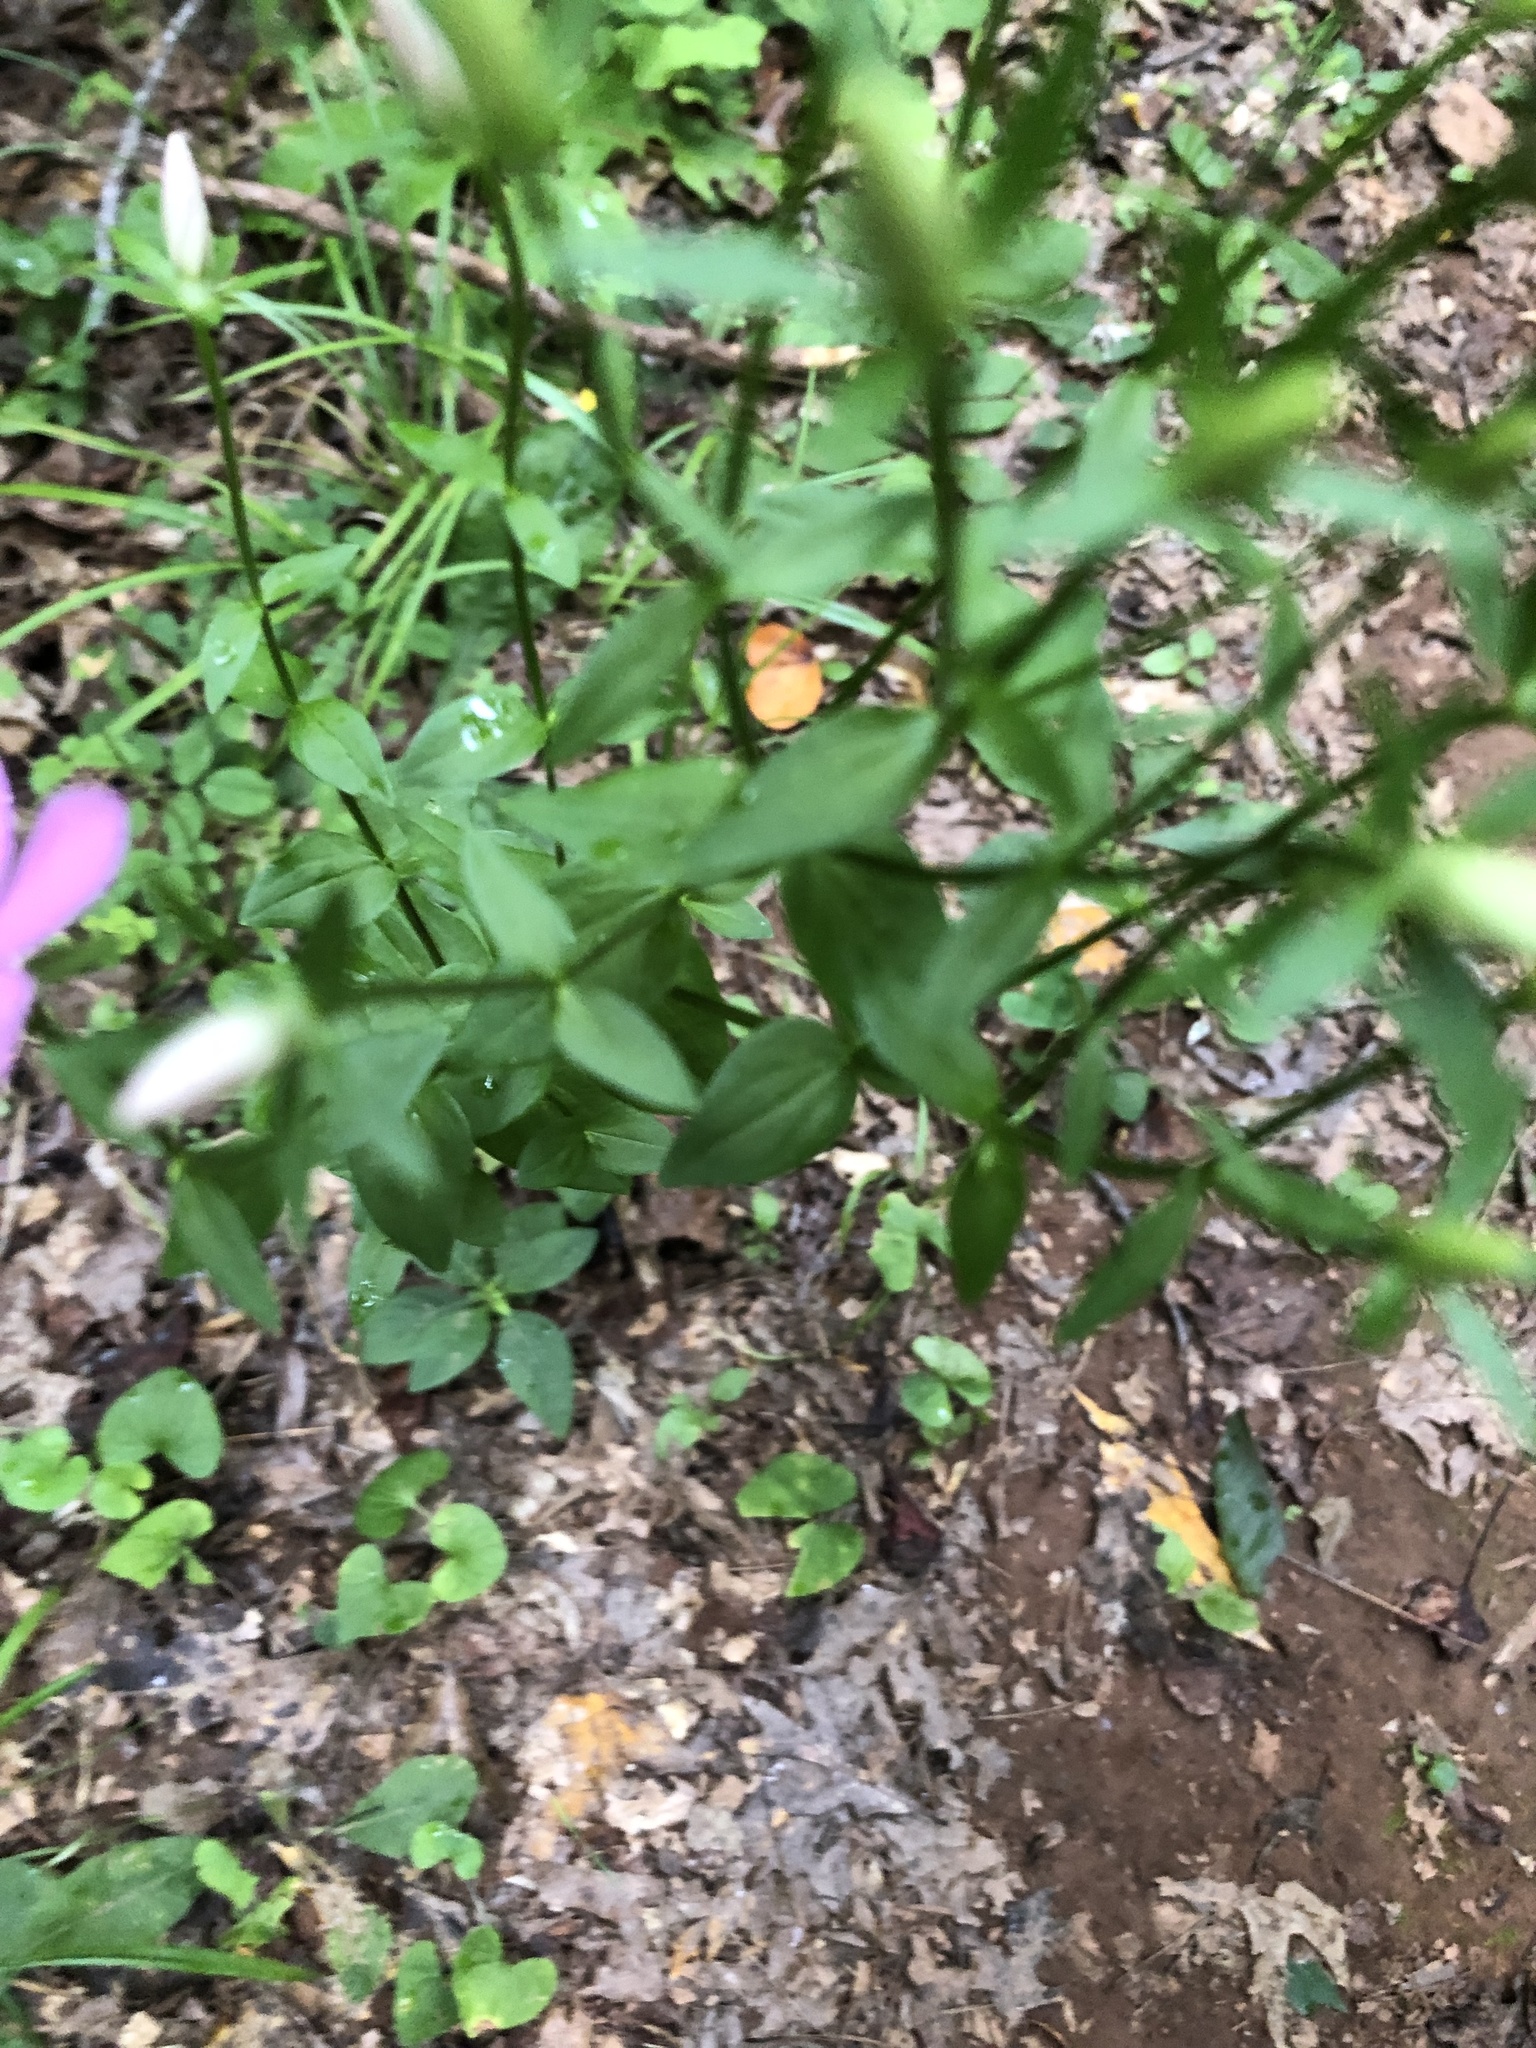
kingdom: Plantae
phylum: Tracheophyta
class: Magnoliopsida
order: Gentianales
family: Gentianaceae
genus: Sabatia
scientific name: Sabatia angularis
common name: Rose-pink
